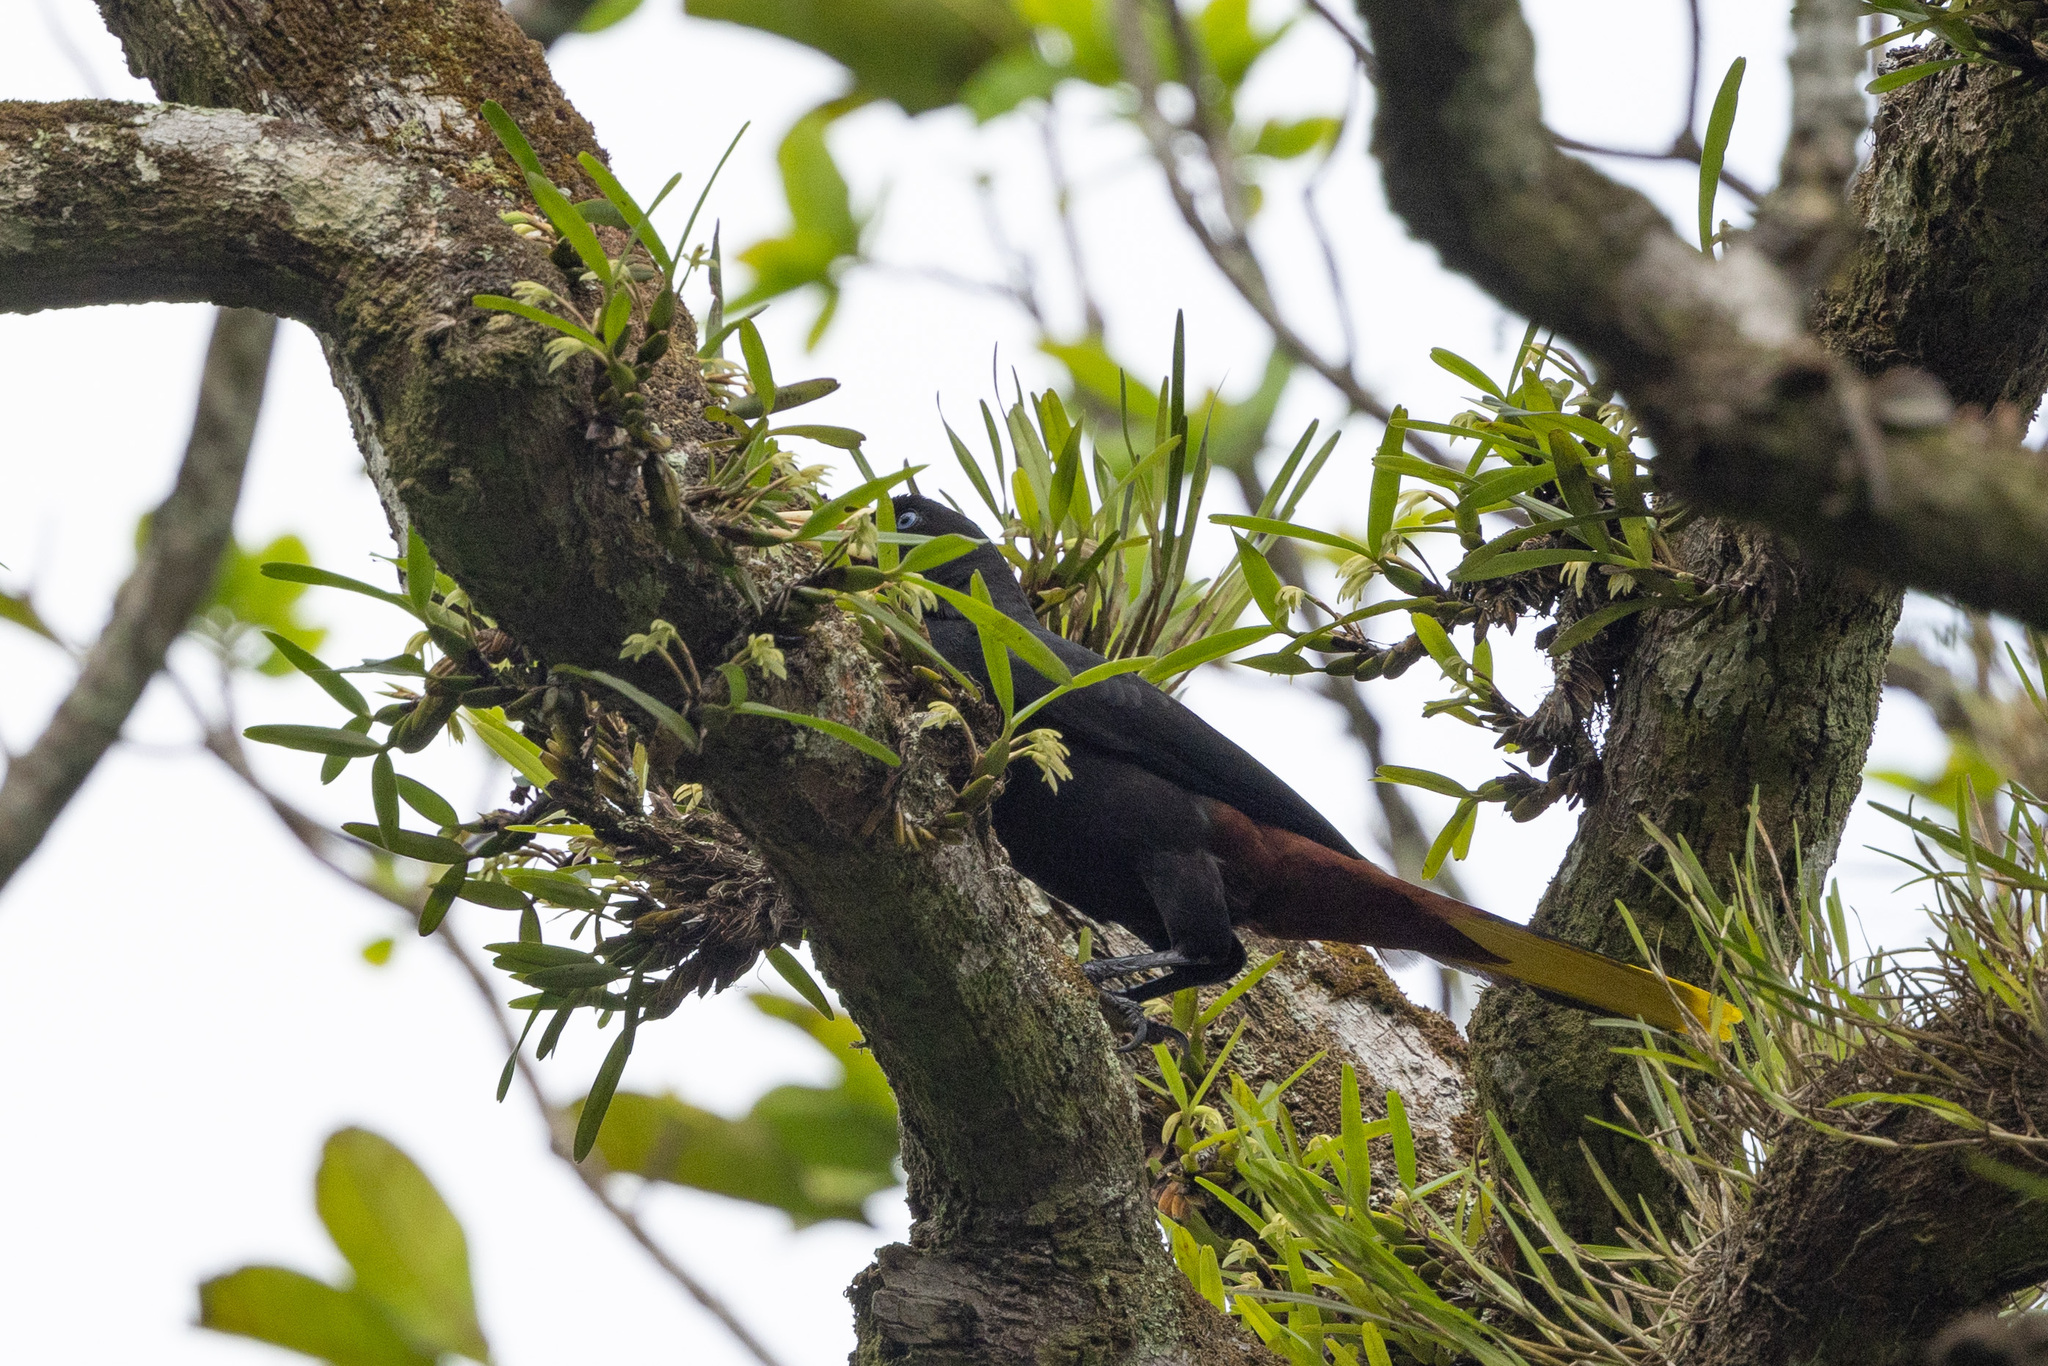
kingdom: Animalia
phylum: Chordata
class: Aves
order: Passeriformes
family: Icteridae
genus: Psarocolius
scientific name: Psarocolius decumanus
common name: Crested oropendola
